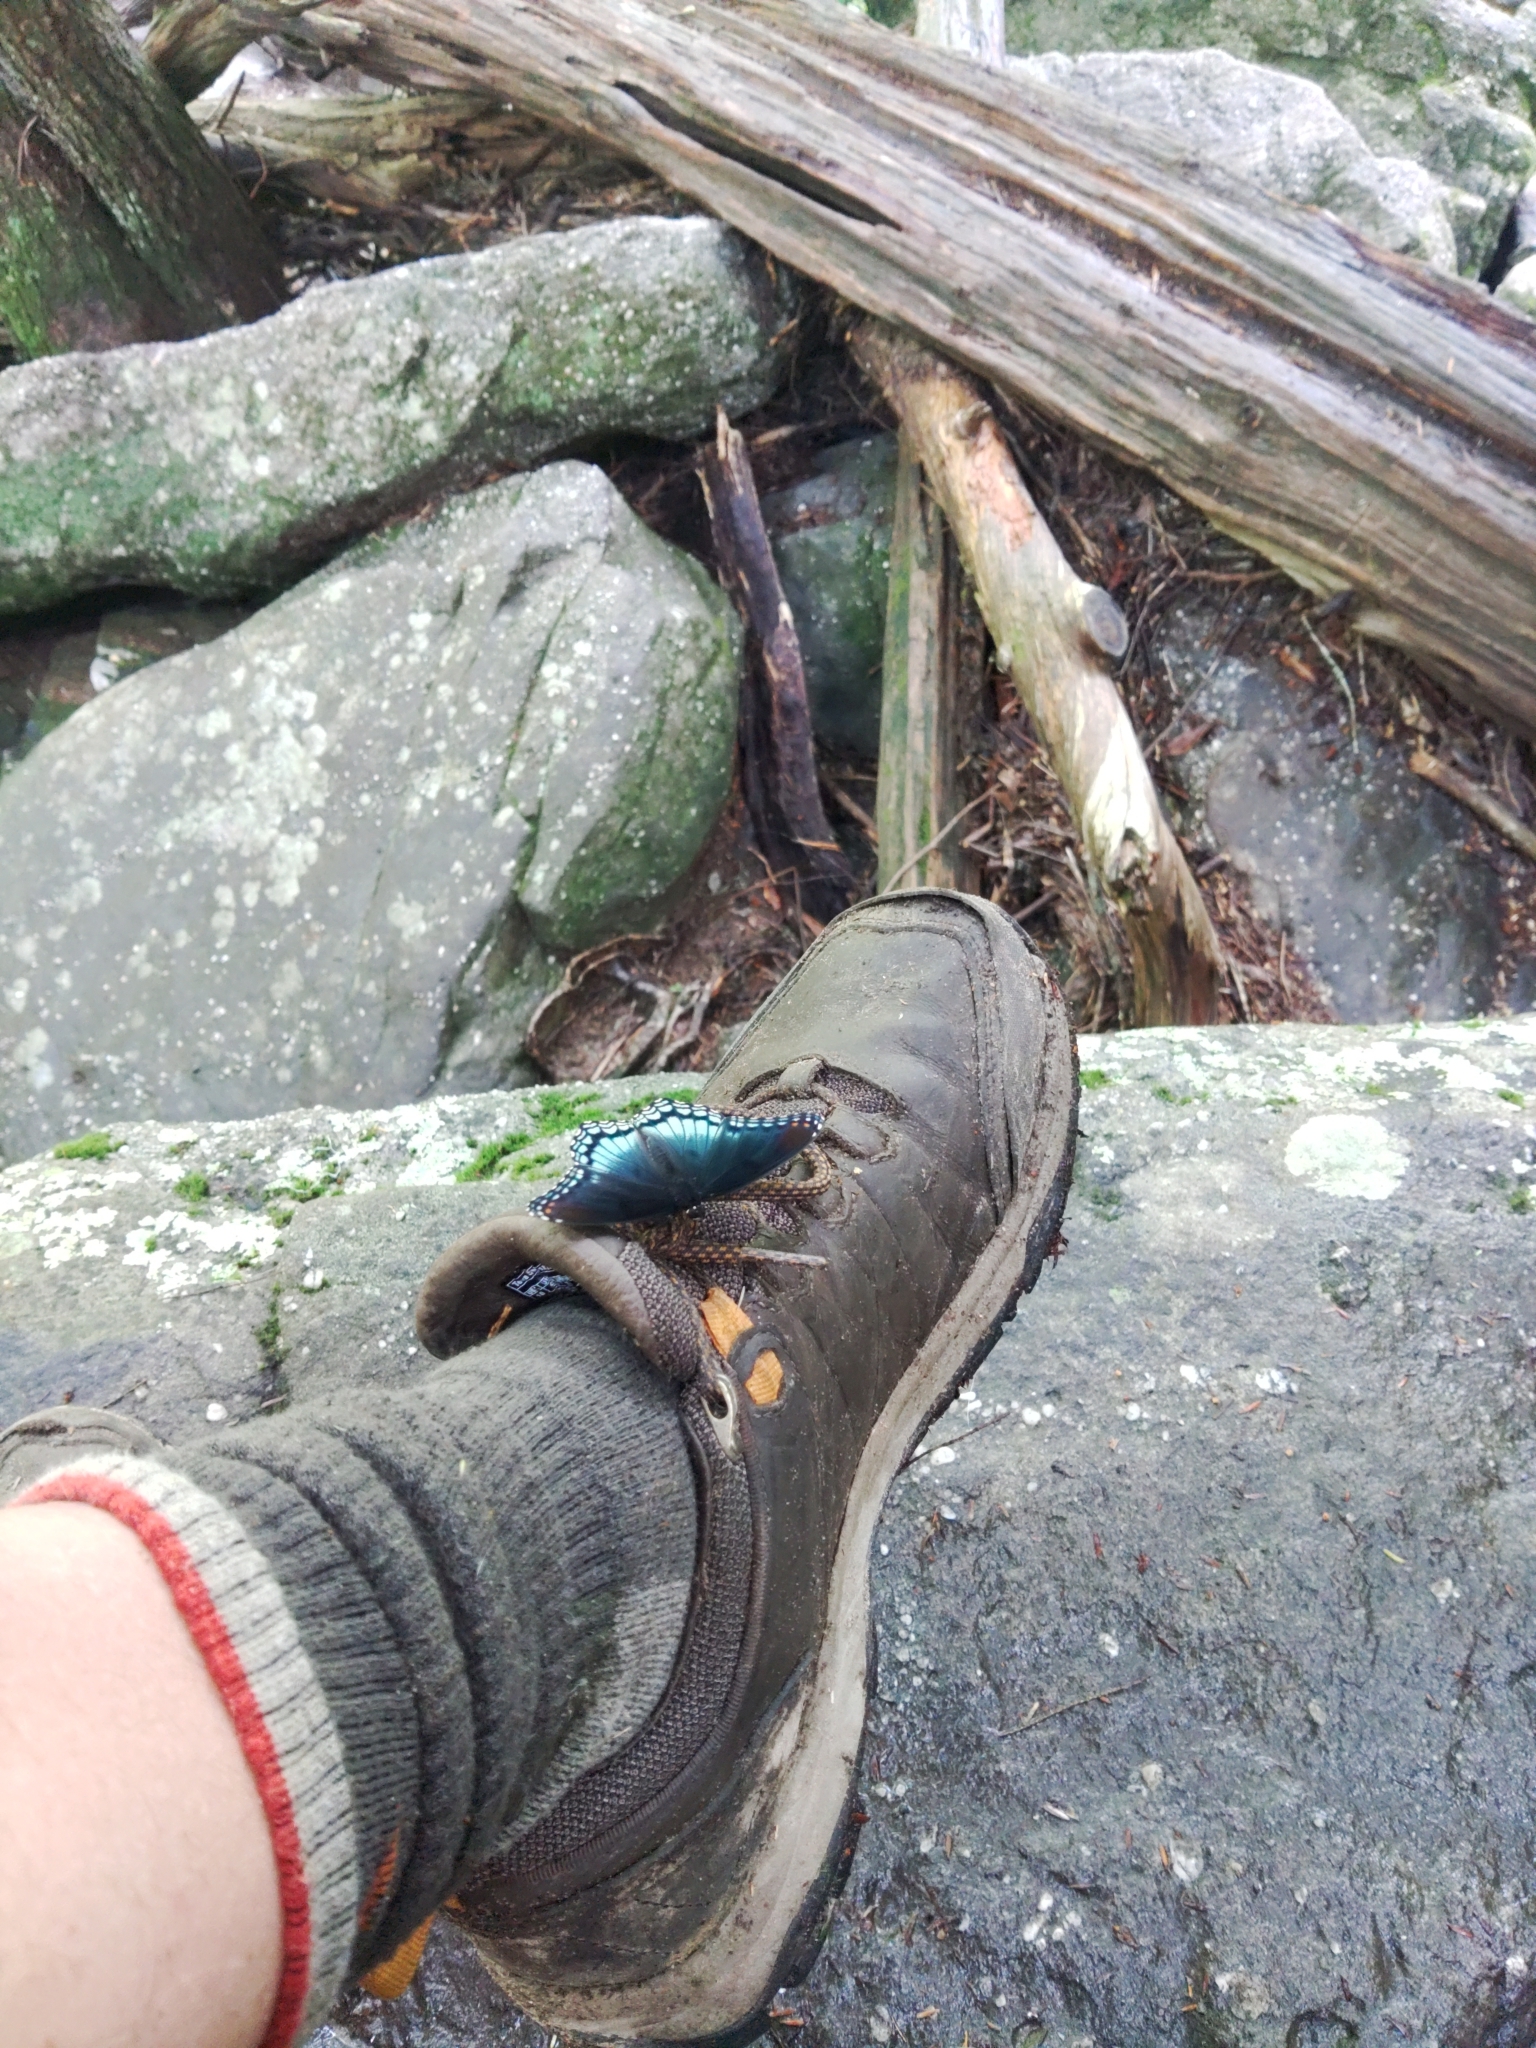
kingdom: Animalia
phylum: Arthropoda
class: Insecta
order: Lepidoptera
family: Nymphalidae
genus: Limenitis
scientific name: Limenitis astyanax
